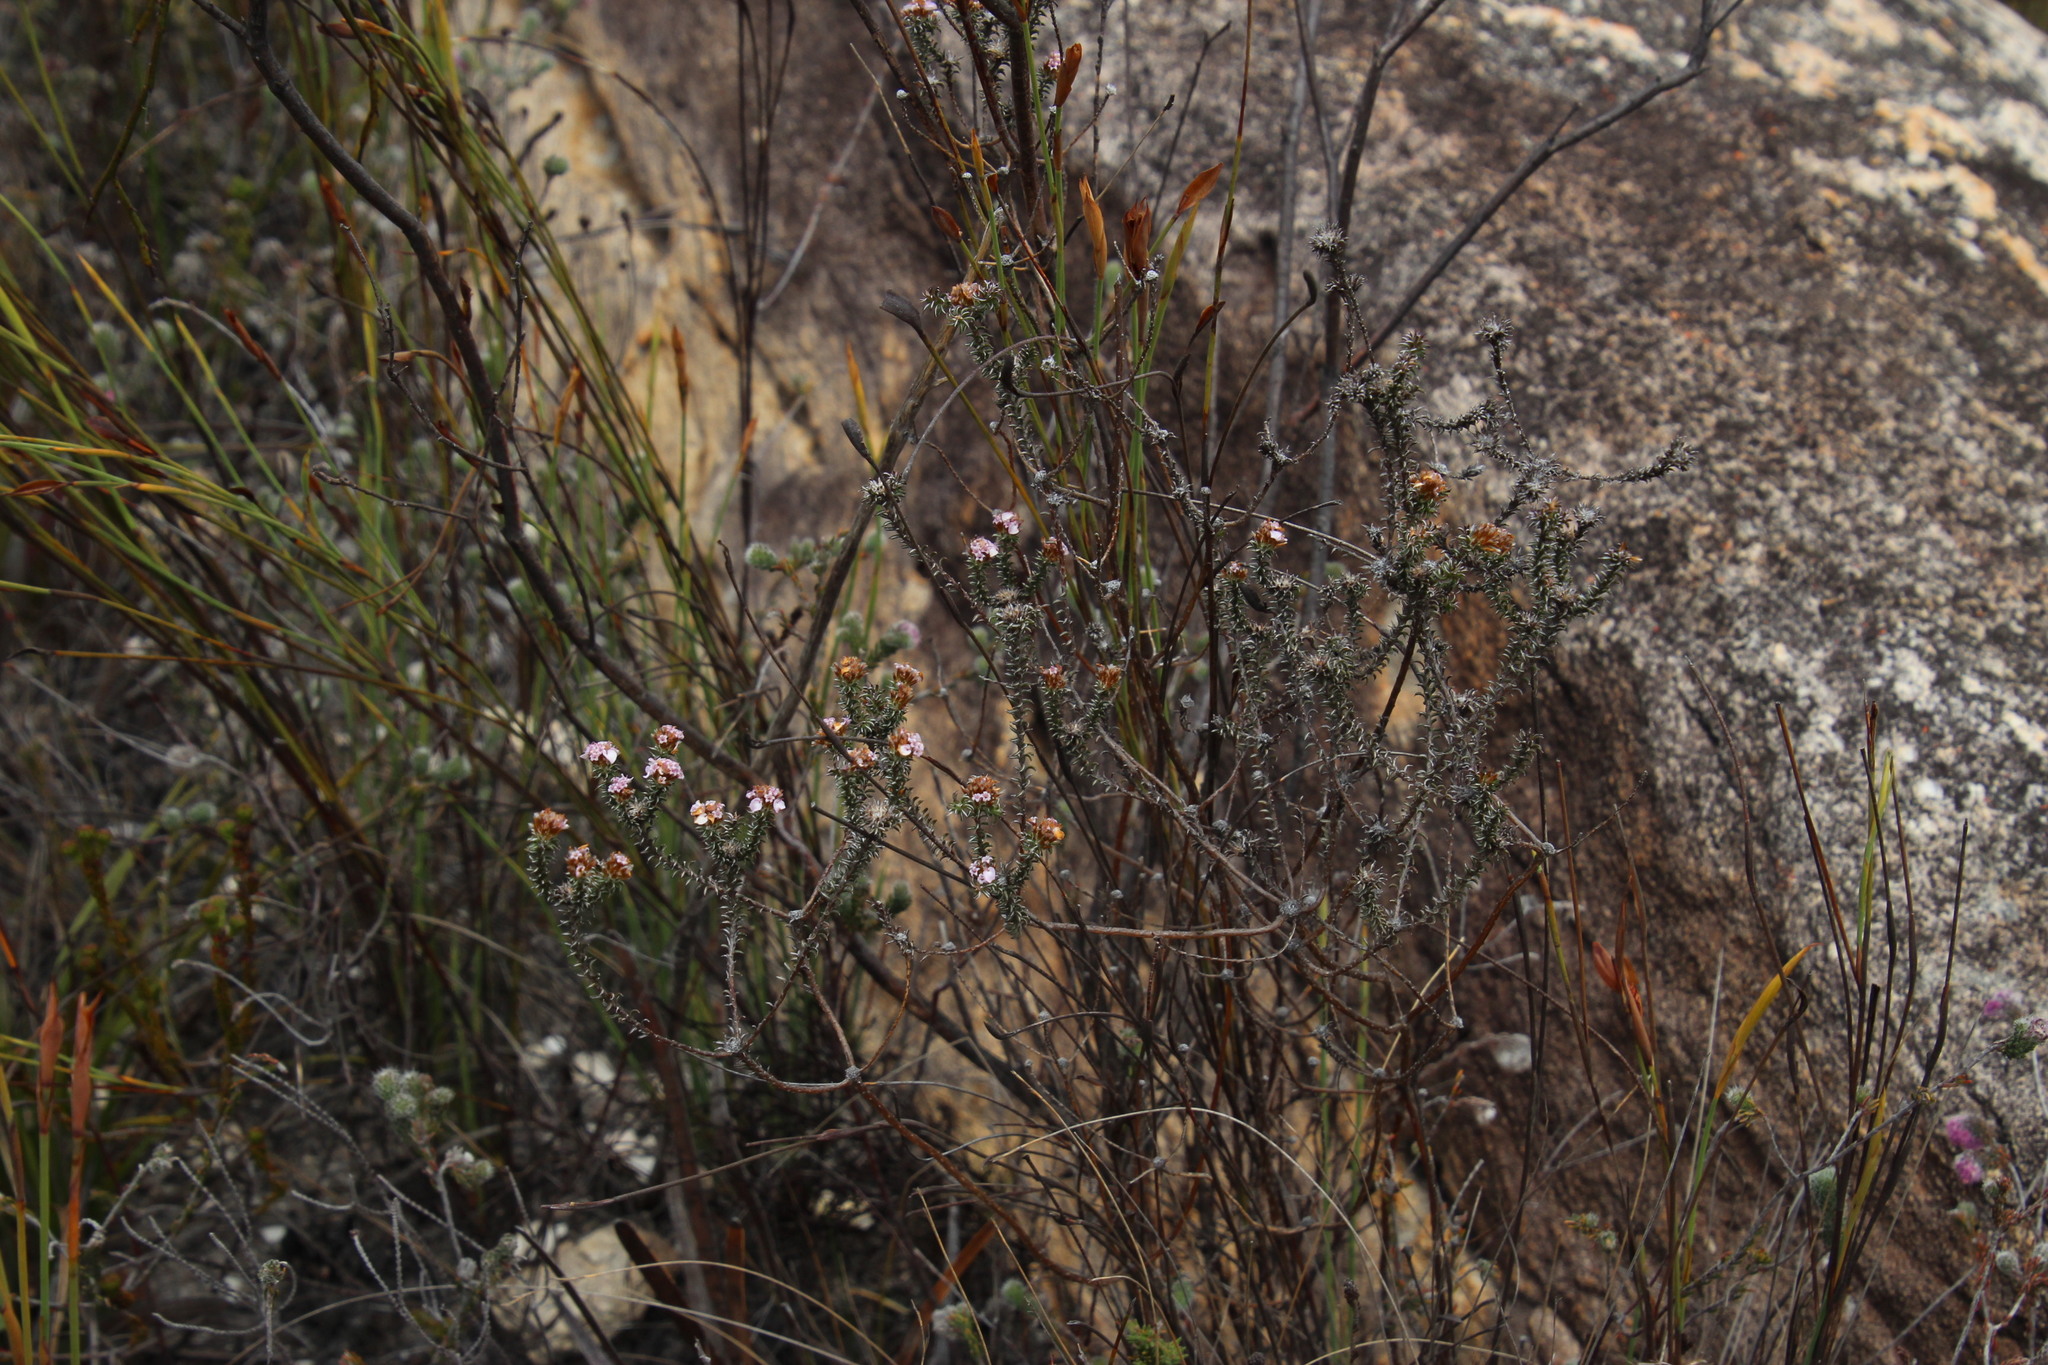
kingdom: Plantae
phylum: Tracheophyta
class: Magnoliopsida
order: Asterales
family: Asteraceae
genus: Disparago
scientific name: Disparago tortilis
